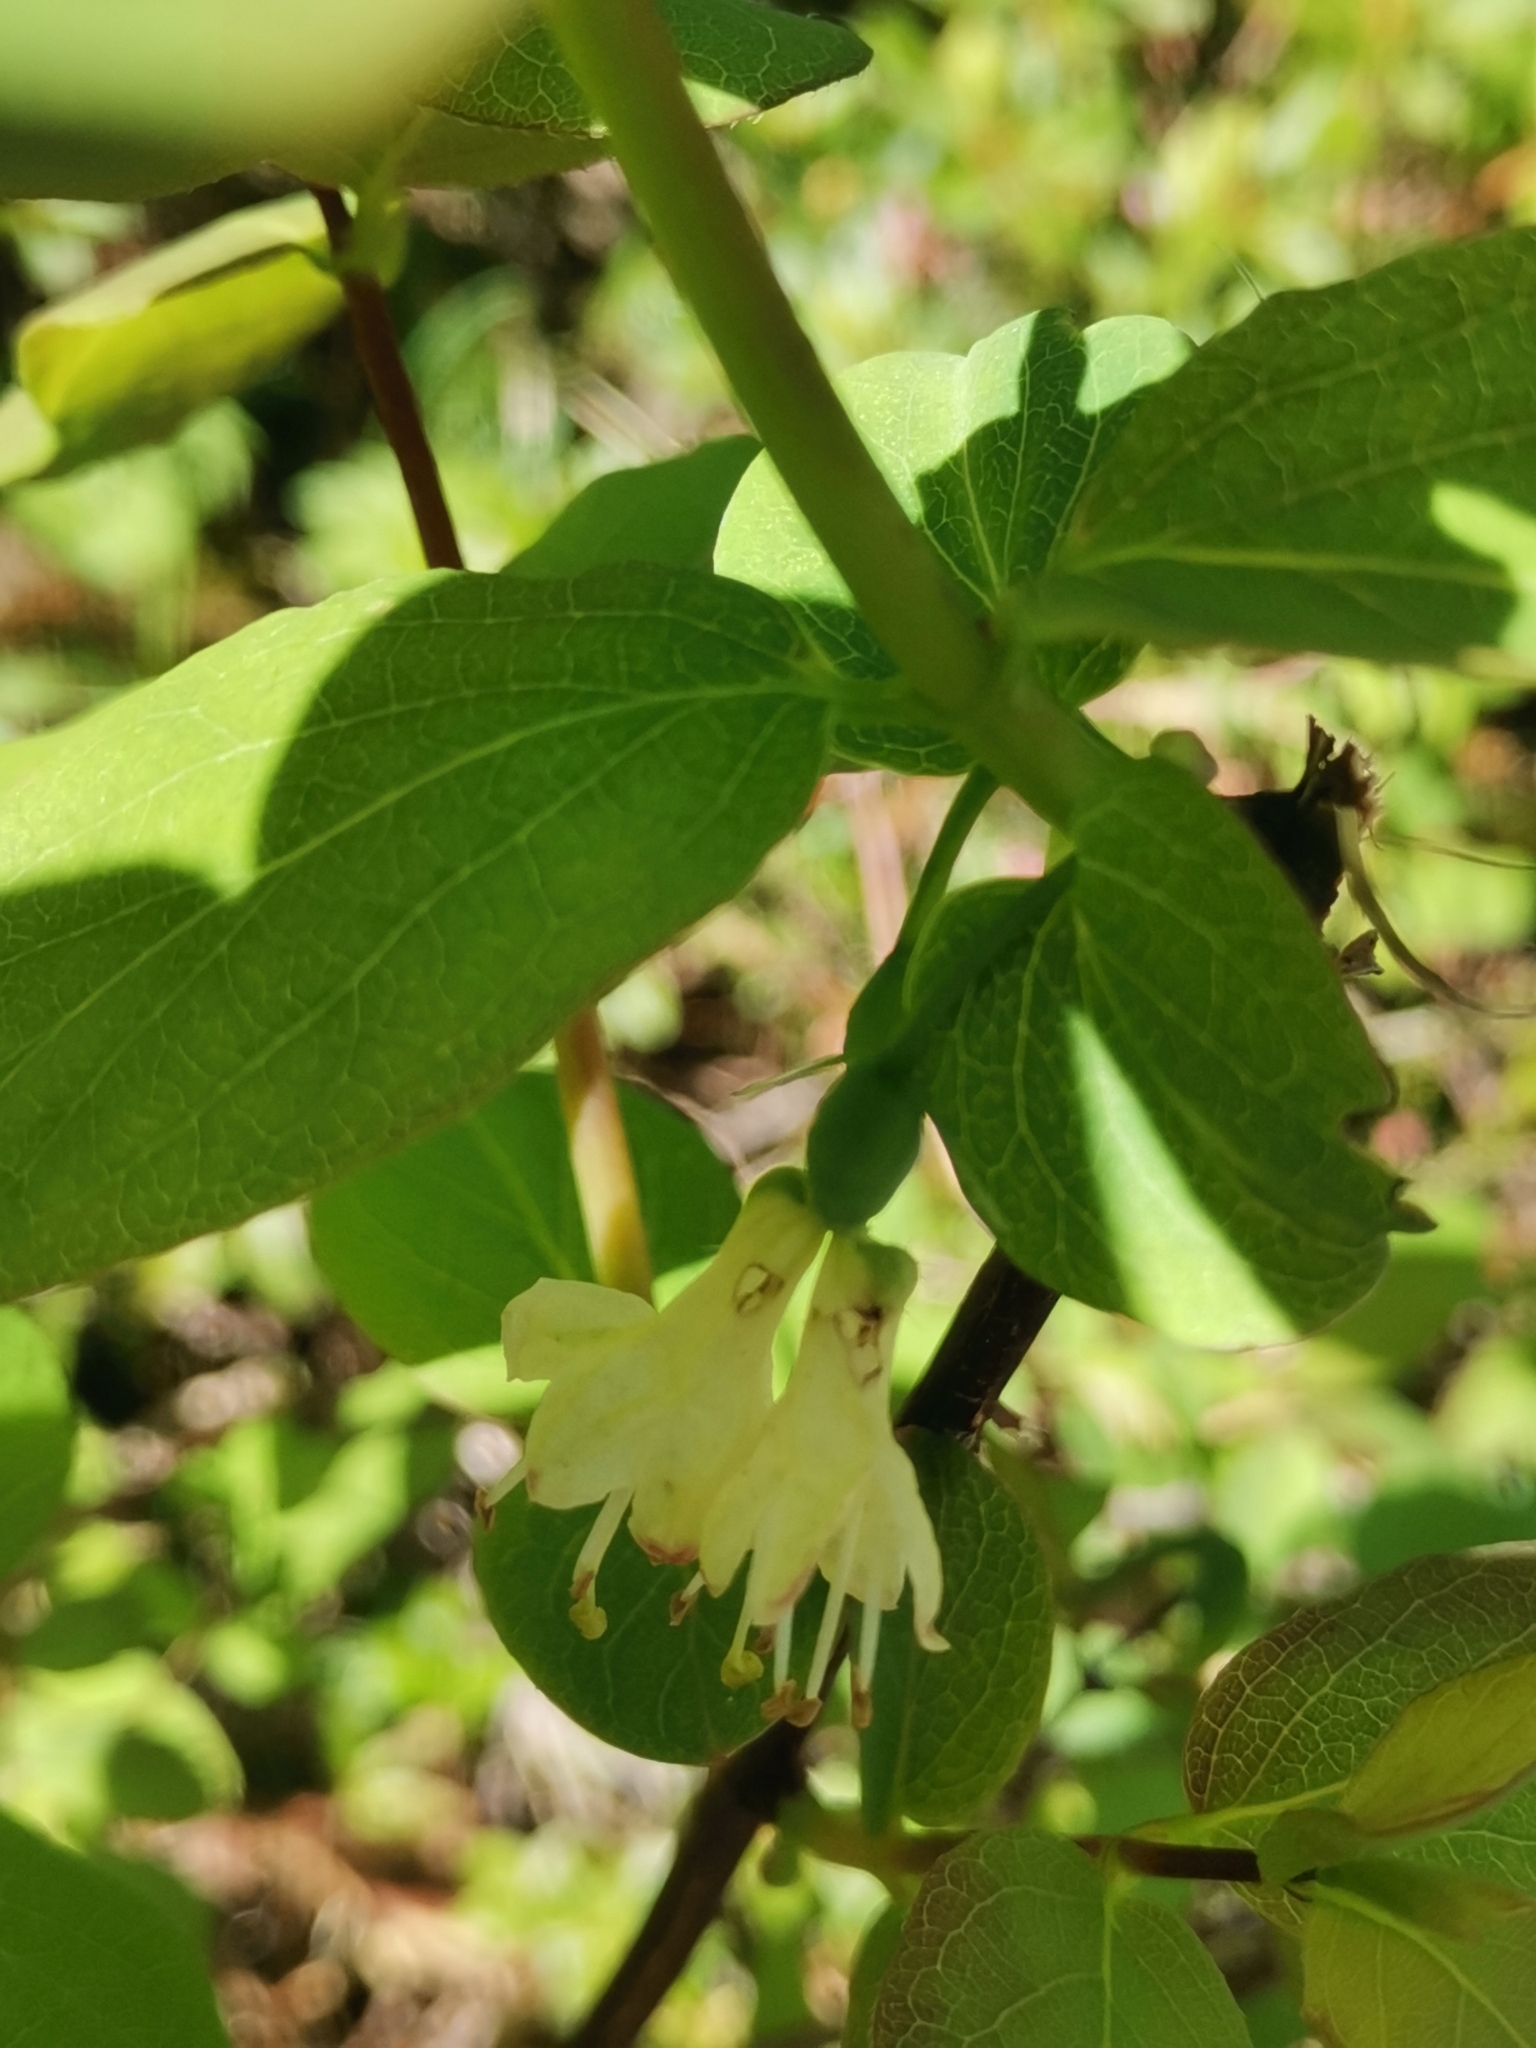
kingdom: Plantae
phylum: Tracheophyta
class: Magnoliopsida
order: Dipsacales
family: Caprifoliaceae
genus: Lonicera
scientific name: Lonicera caerulea
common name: Blue honeysuckle
